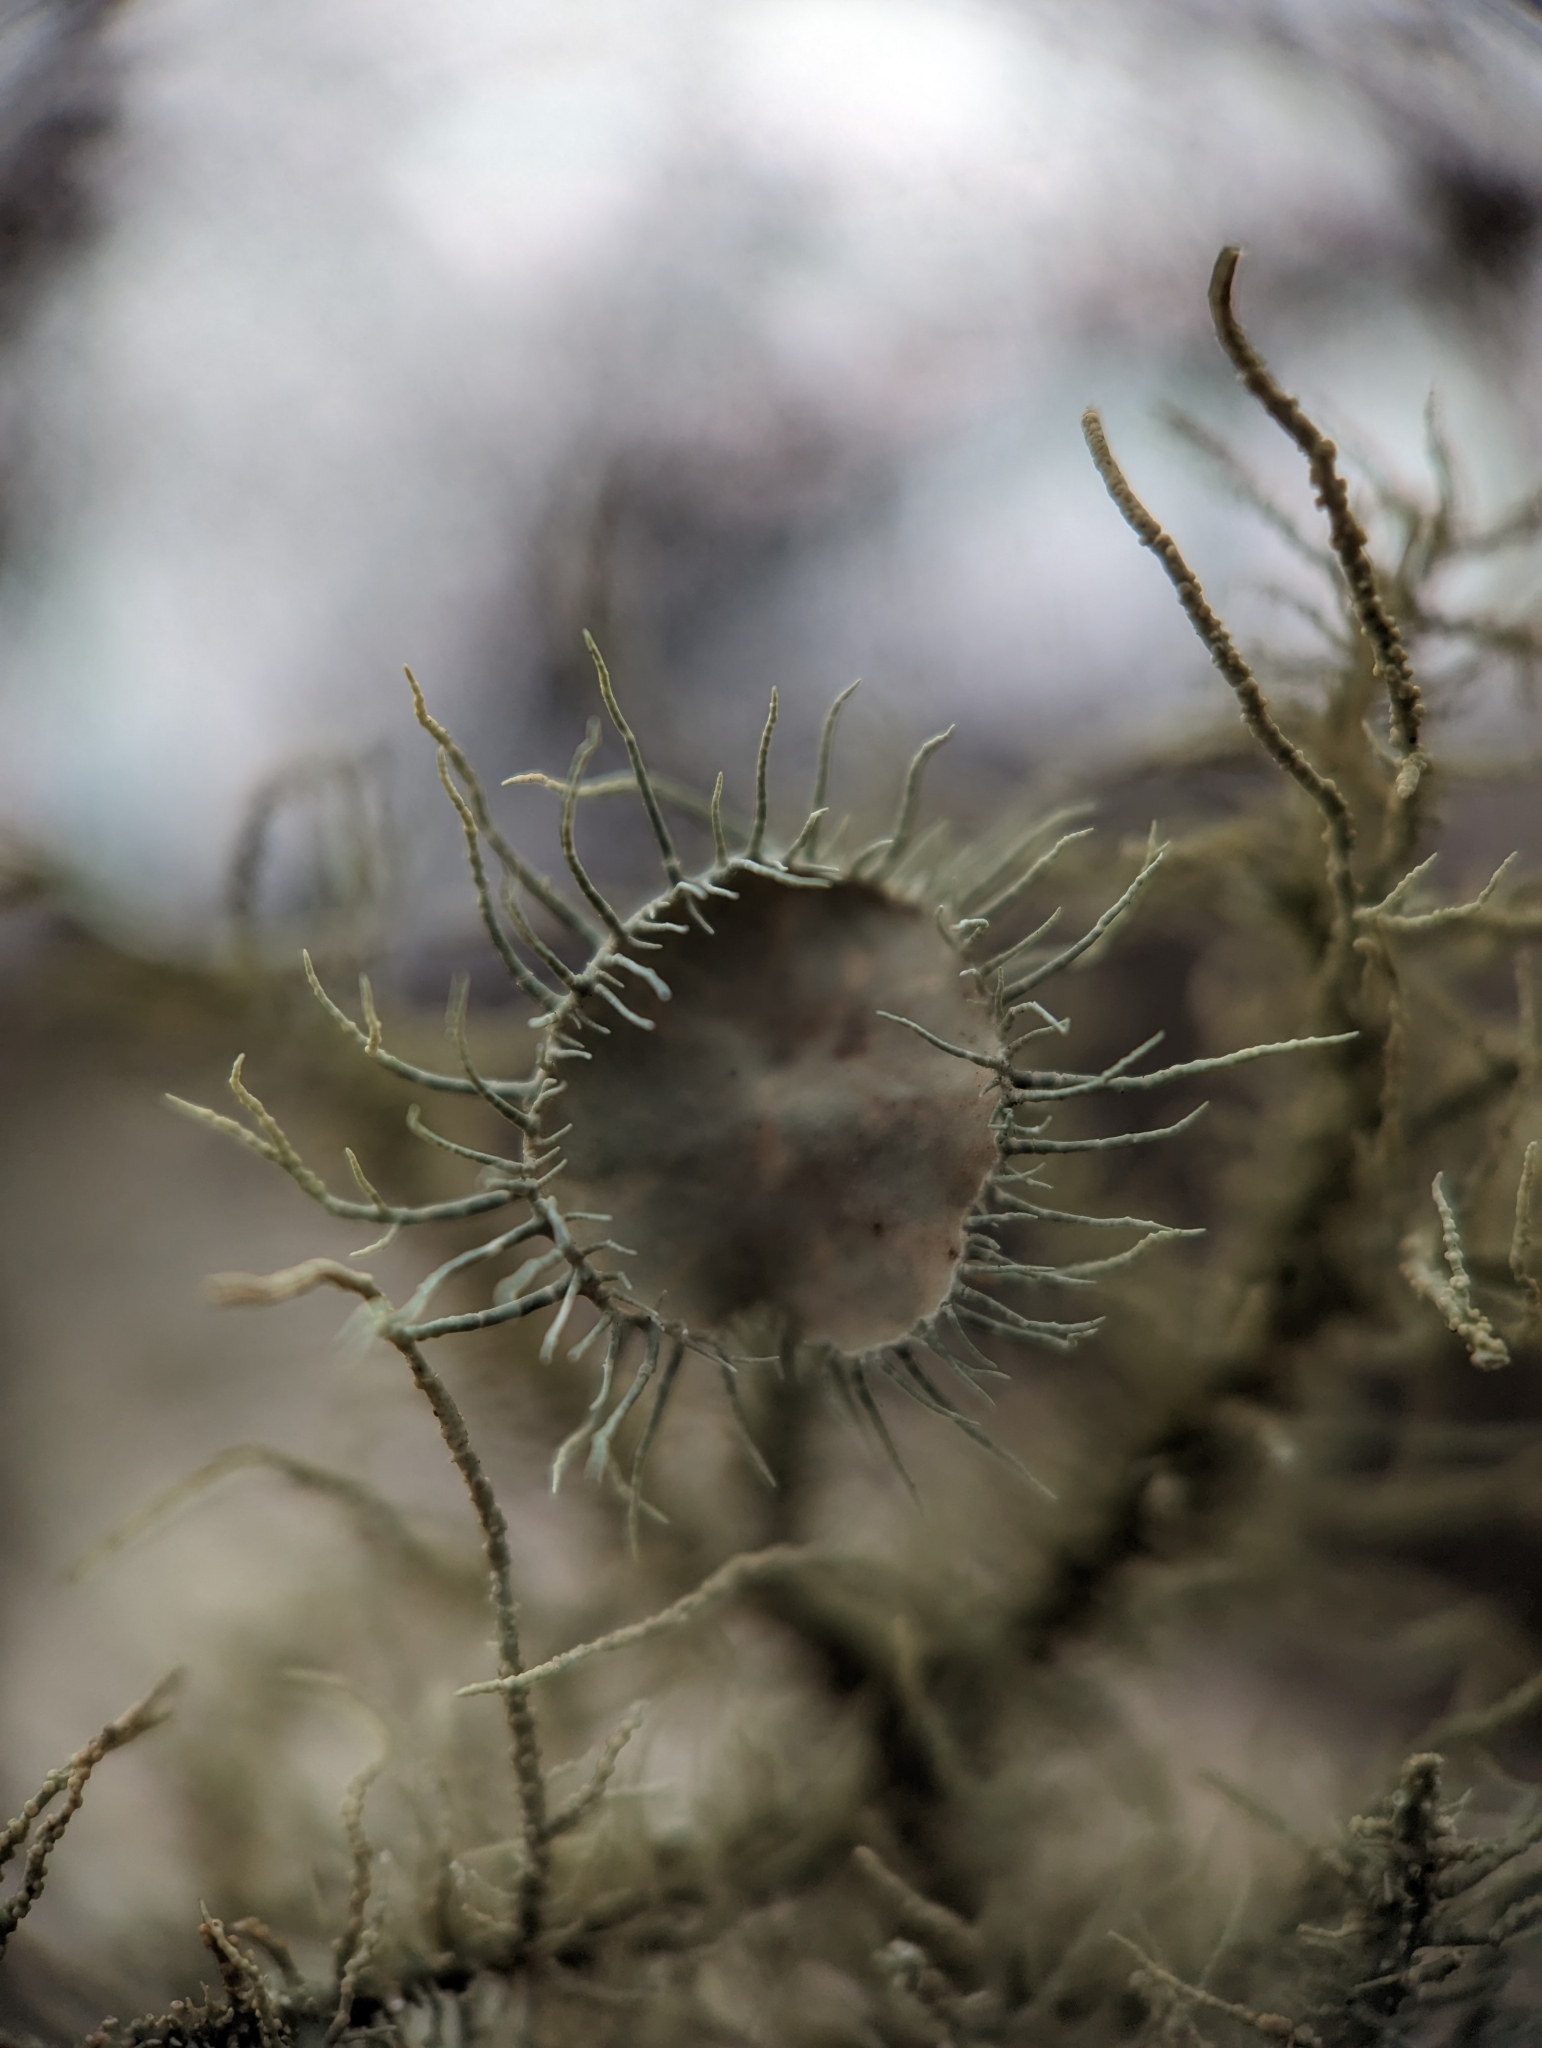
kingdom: Fungi
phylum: Ascomycota
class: Lecanoromycetes
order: Lecanorales
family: Parmeliaceae
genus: Usnea
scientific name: Usnea strigosa
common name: Bushy beard lichen
